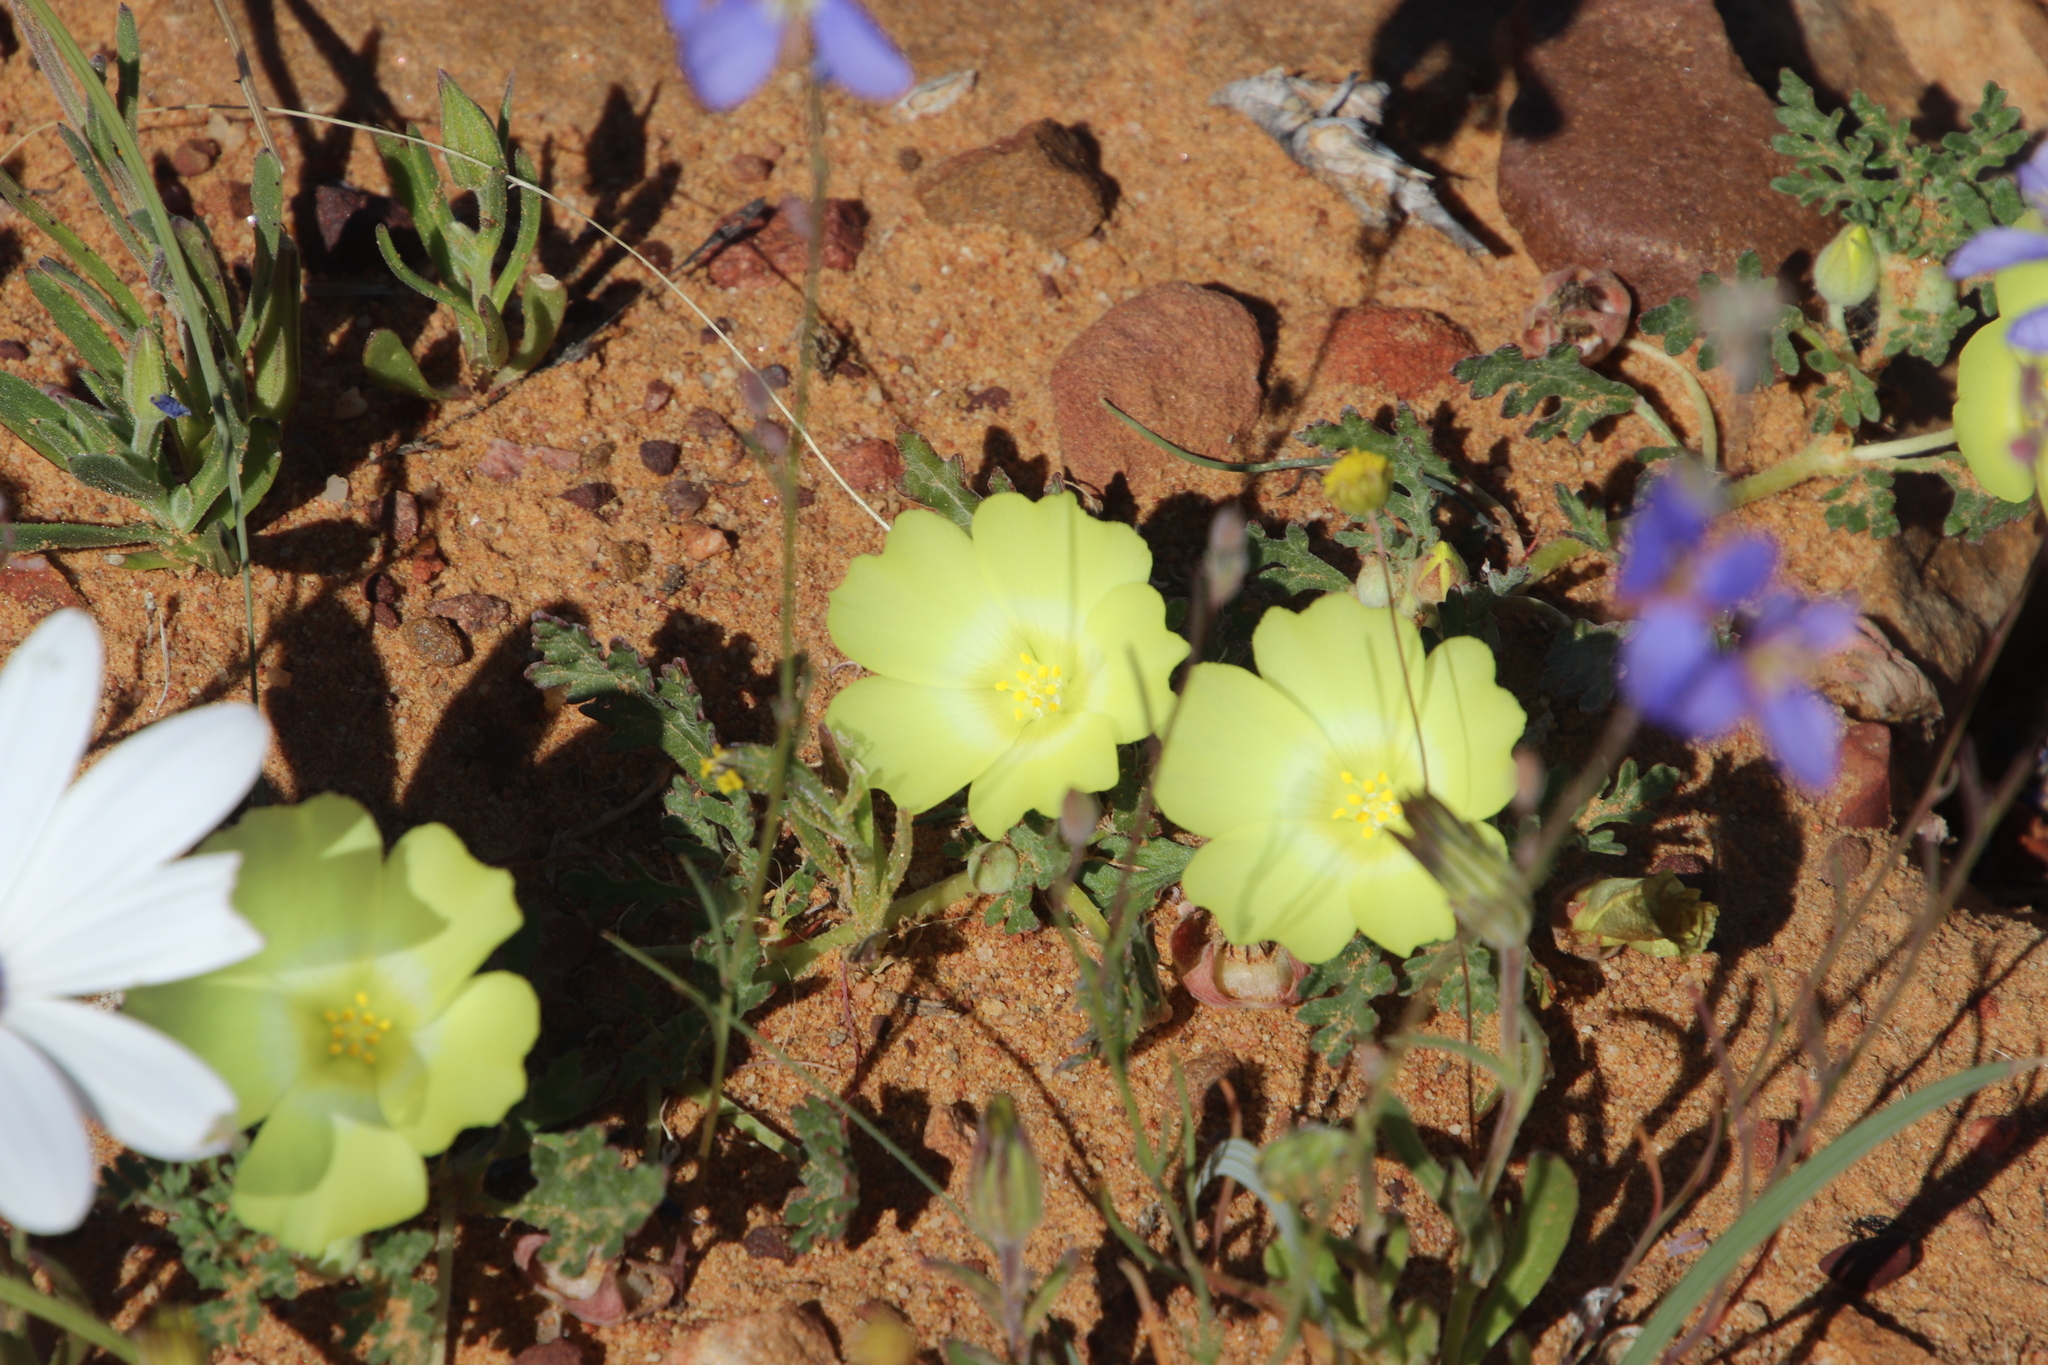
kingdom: Plantae
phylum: Tracheophyta
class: Magnoliopsida
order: Malvales
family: Neuradaceae
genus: Grielum
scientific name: Grielum humifusum
